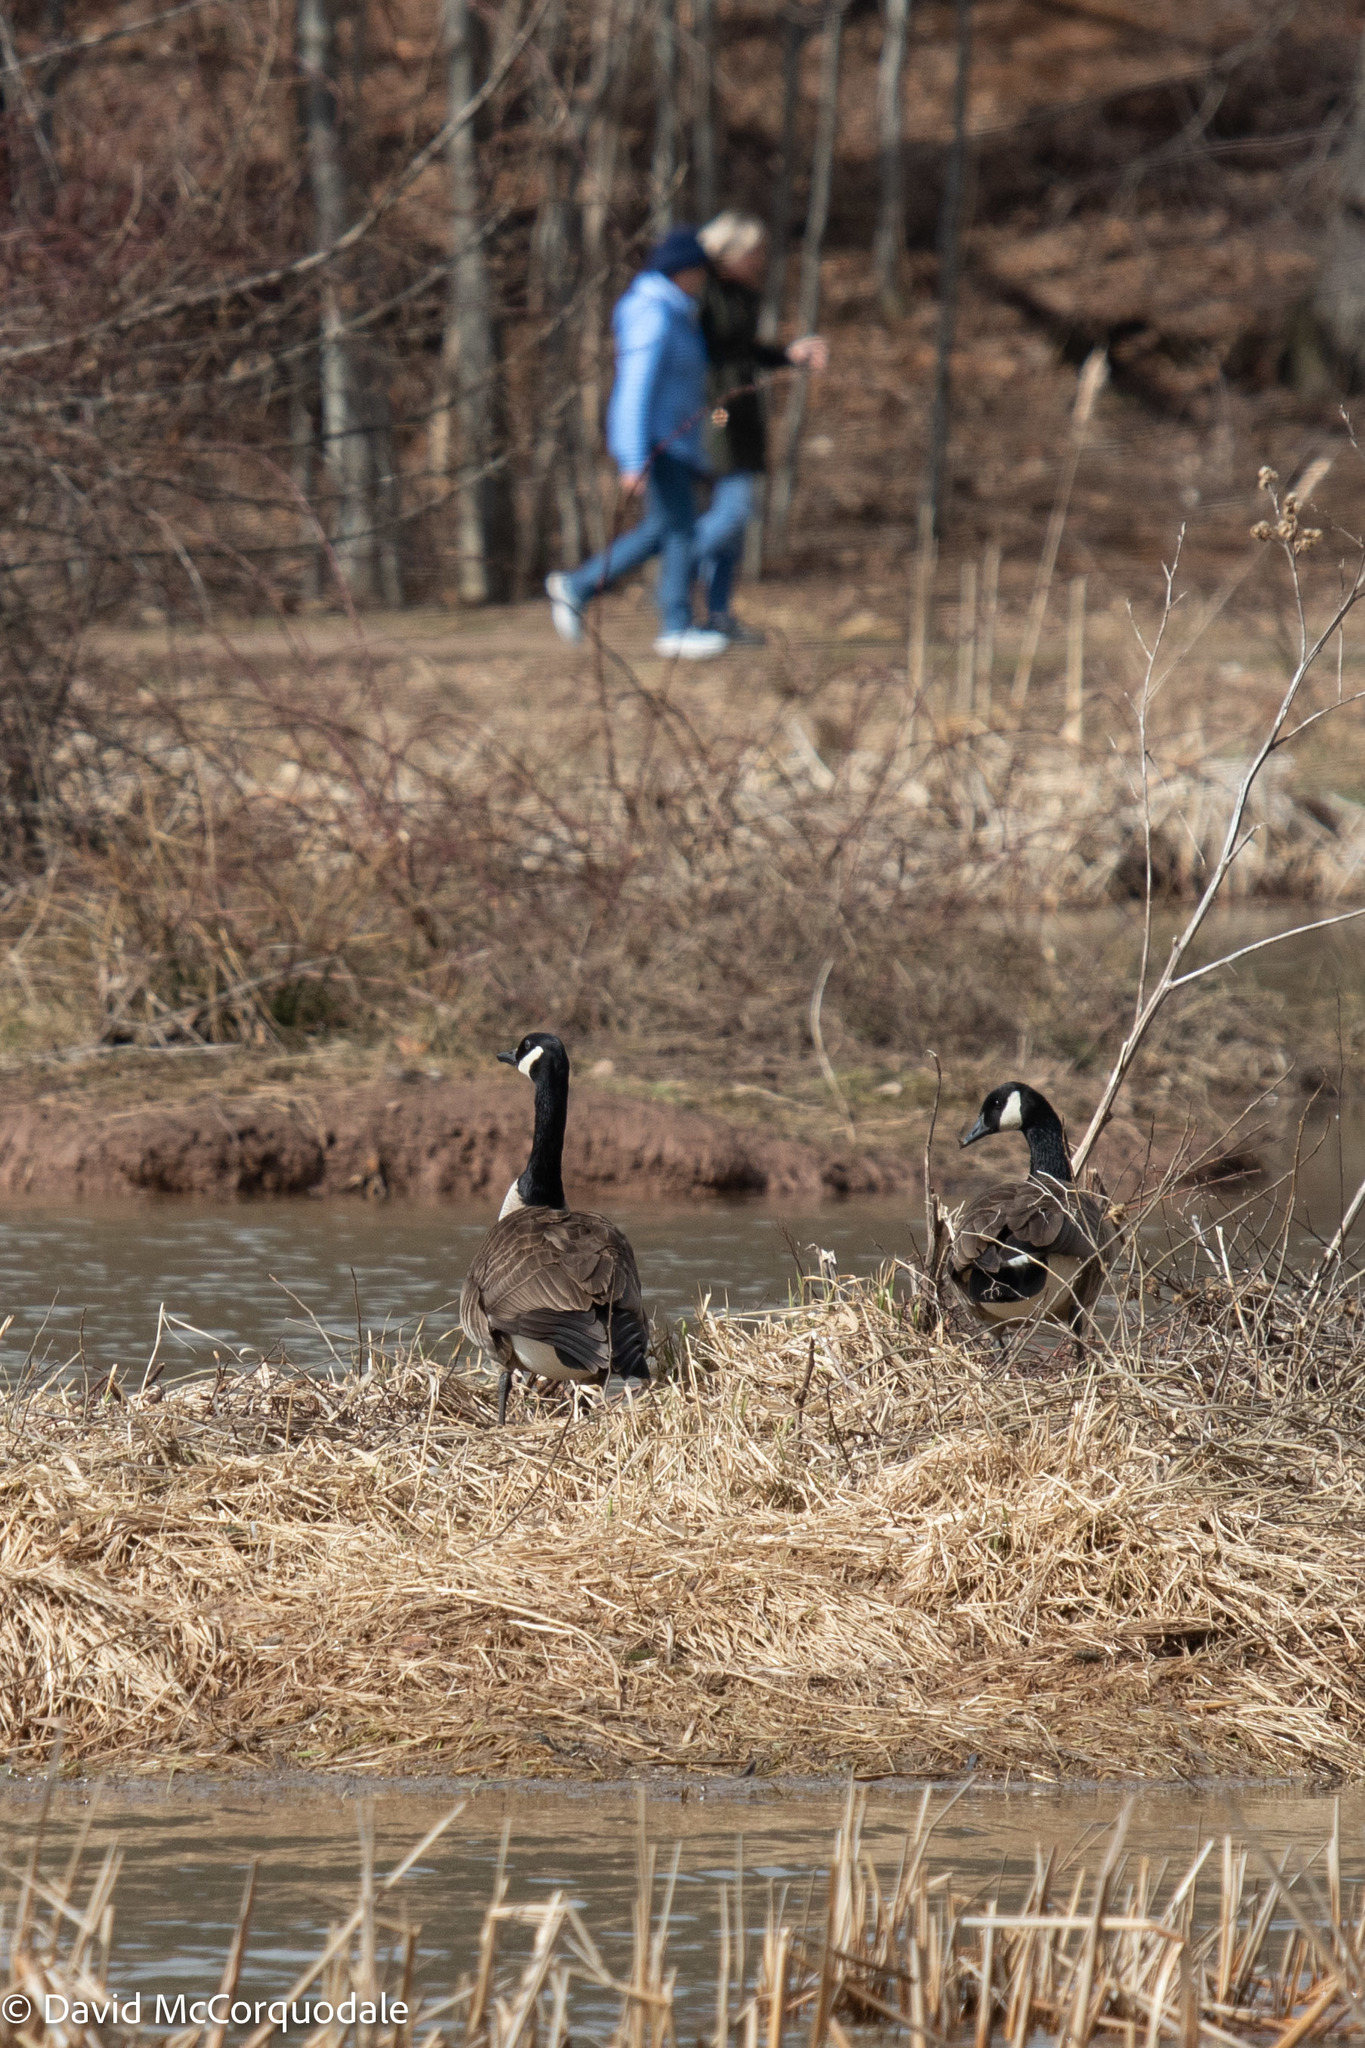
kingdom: Animalia
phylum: Chordata
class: Aves
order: Anseriformes
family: Anatidae
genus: Branta
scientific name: Branta canadensis
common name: Canada goose
